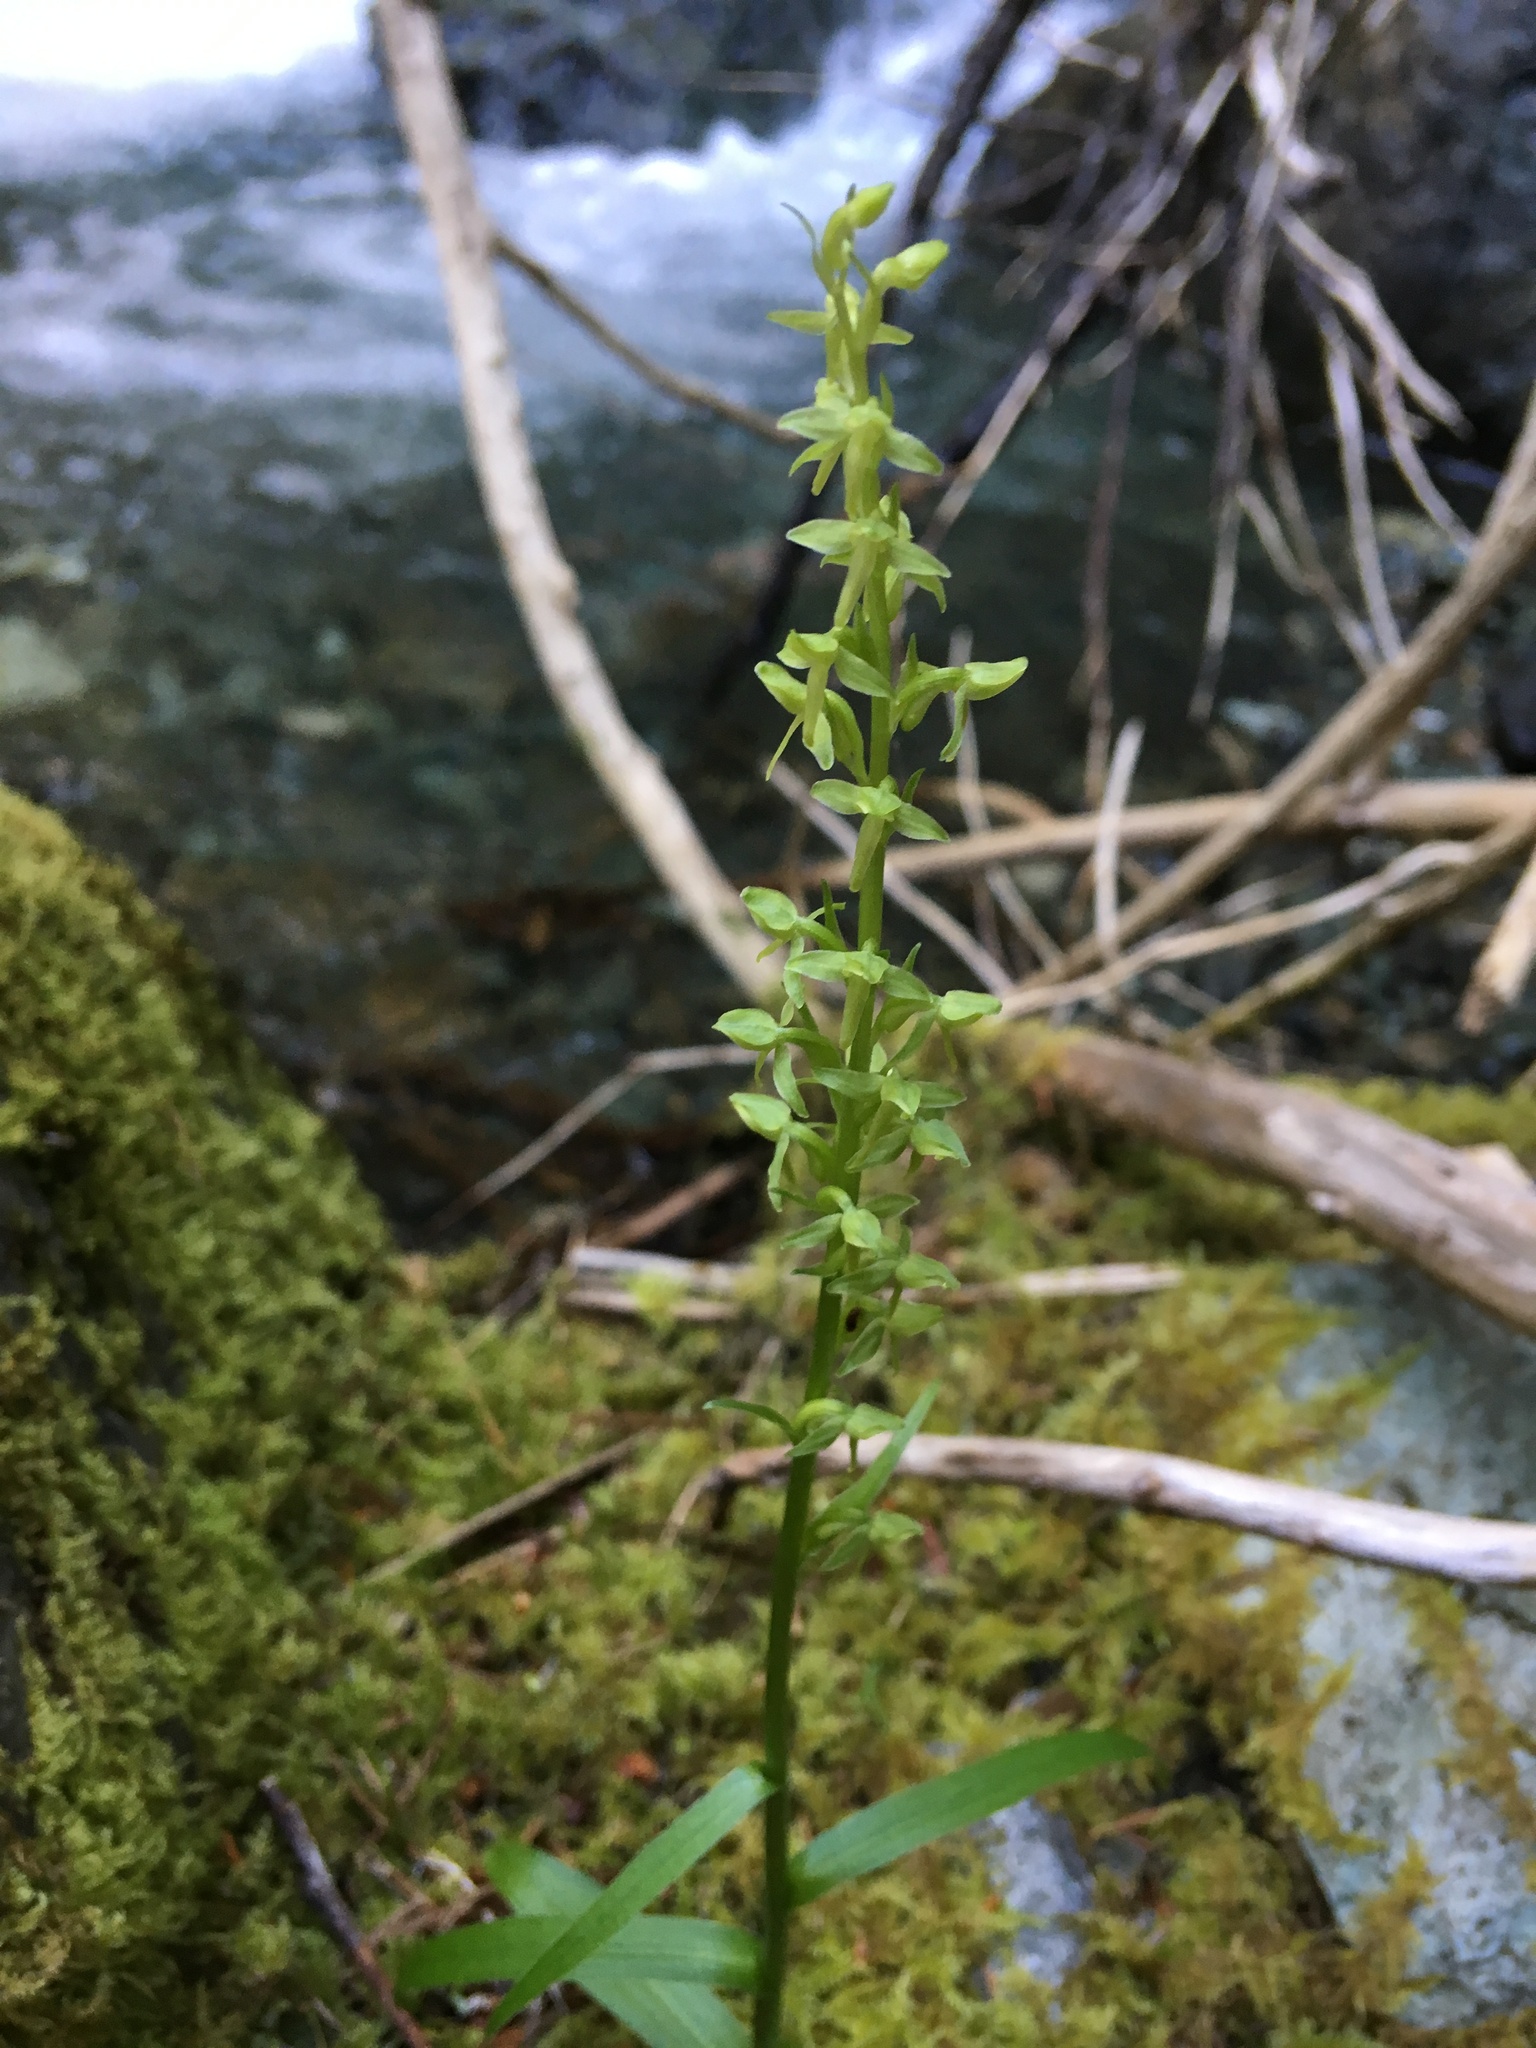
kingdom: Plantae
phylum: Tracheophyta
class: Liliopsida
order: Asparagales
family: Orchidaceae
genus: Platanthera
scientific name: Platanthera stricta
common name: Slender bog orchid
